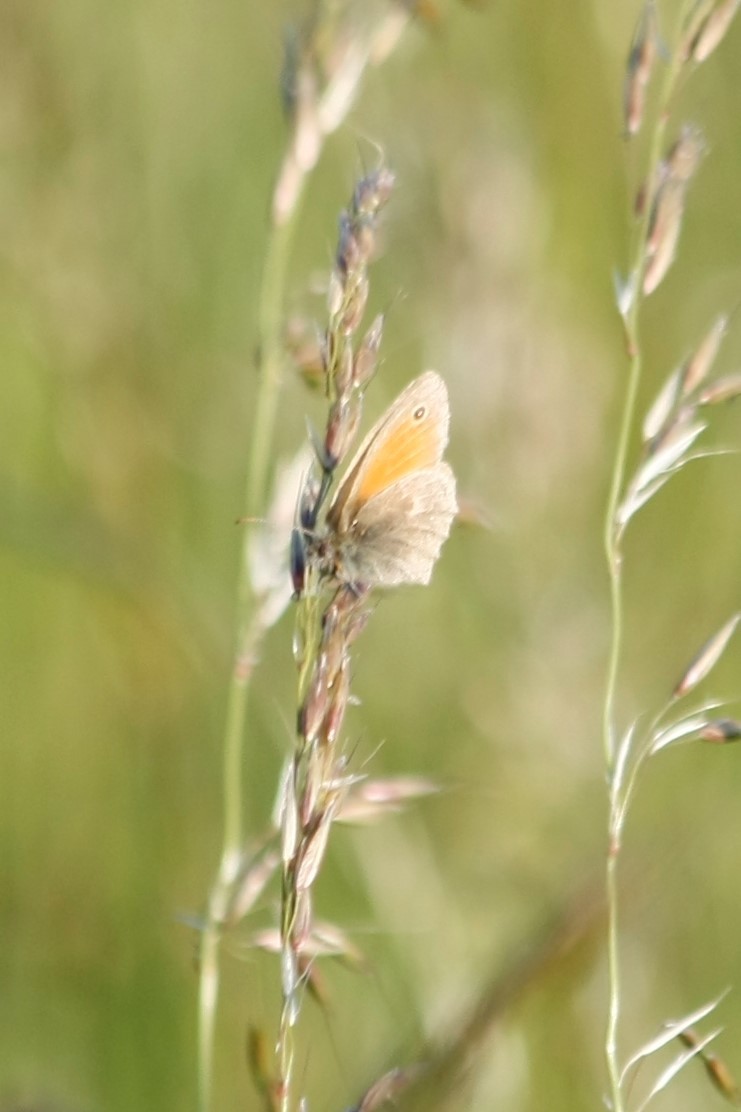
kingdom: Animalia
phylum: Arthropoda
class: Insecta
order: Lepidoptera
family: Nymphalidae
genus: Coenonympha
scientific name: Coenonympha pamphilus
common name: Small heath
